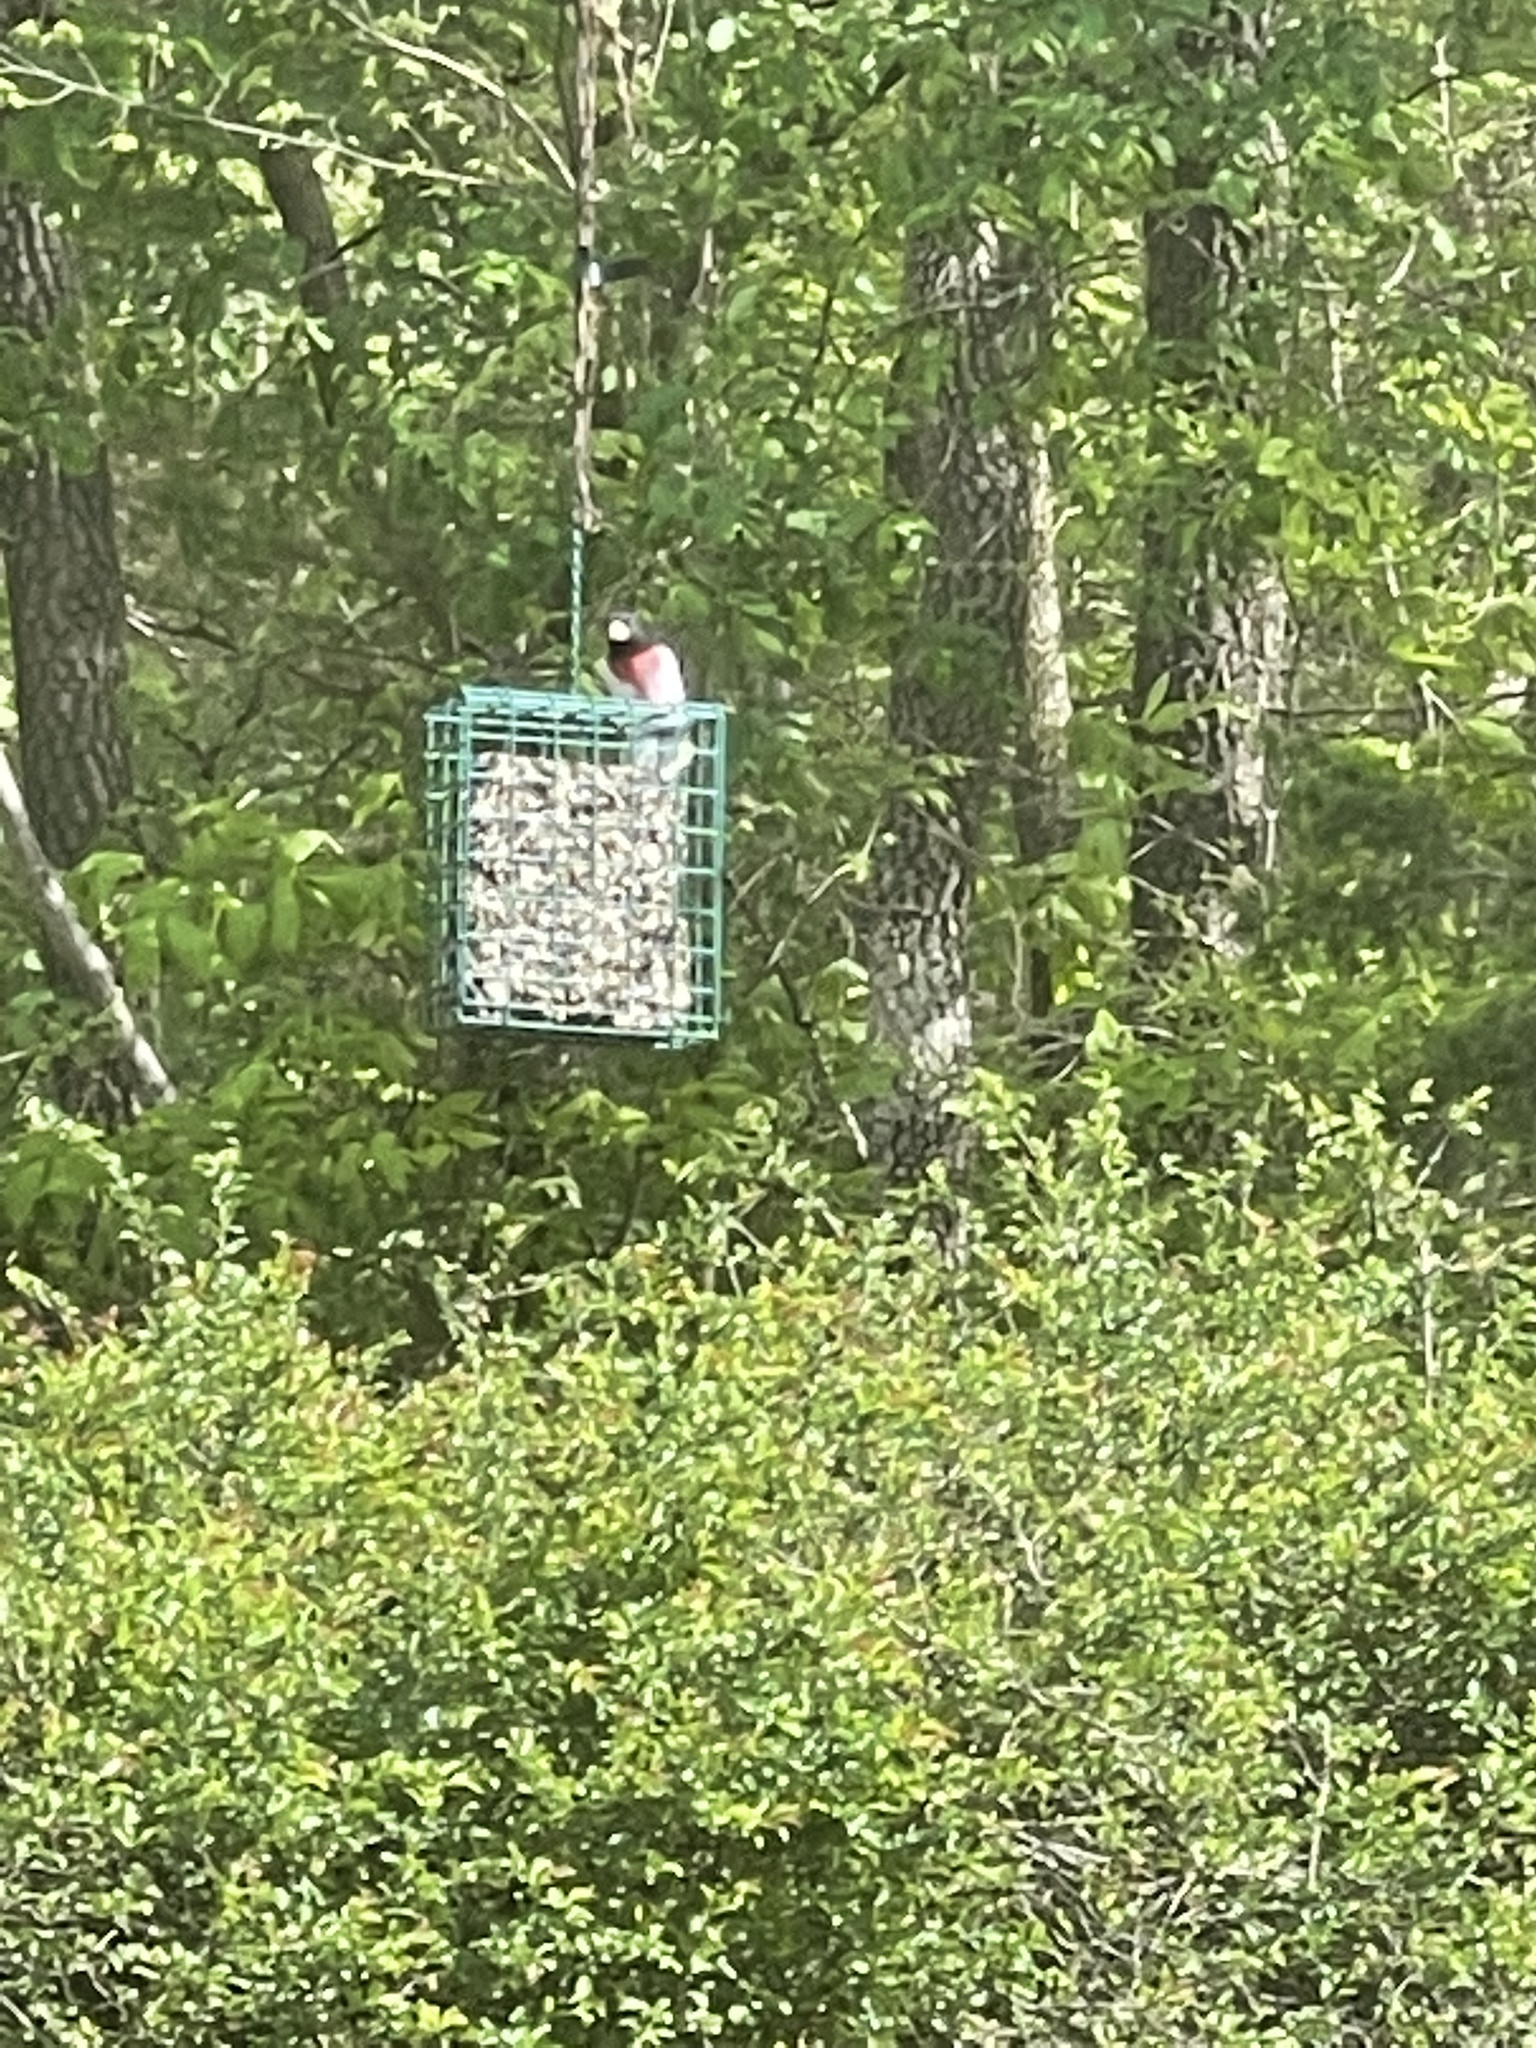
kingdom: Animalia
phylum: Chordata
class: Aves
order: Passeriformes
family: Cardinalidae
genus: Pheucticus
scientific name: Pheucticus ludovicianus
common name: Rose-breasted grosbeak
